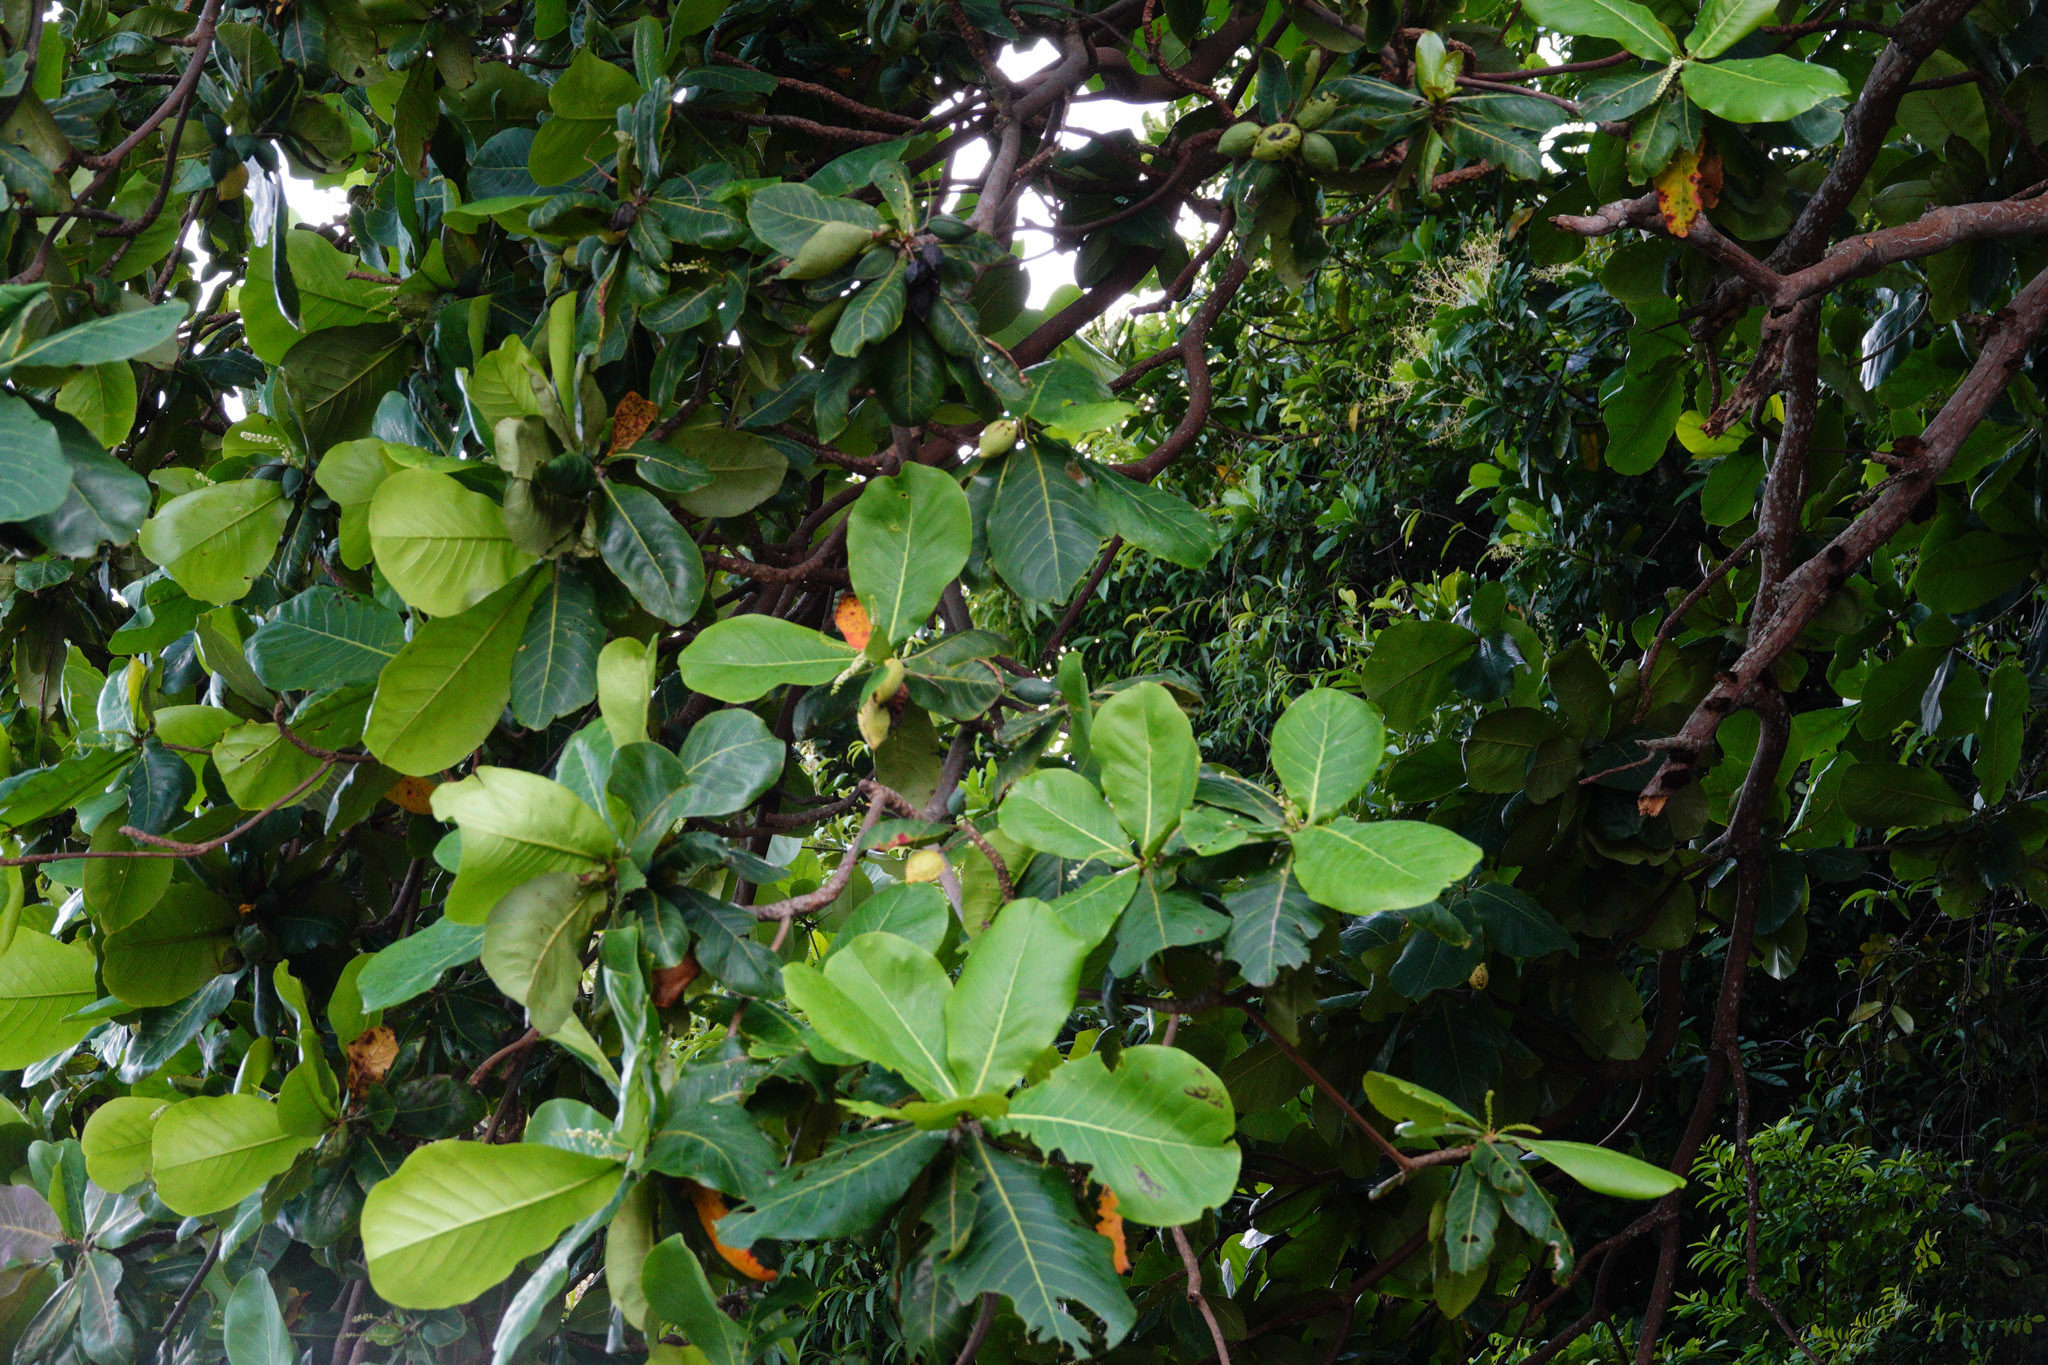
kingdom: Plantae
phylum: Tracheophyta
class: Magnoliopsida
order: Myrtales
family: Combretaceae
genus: Terminalia
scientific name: Terminalia catappa
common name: Tropical almond
